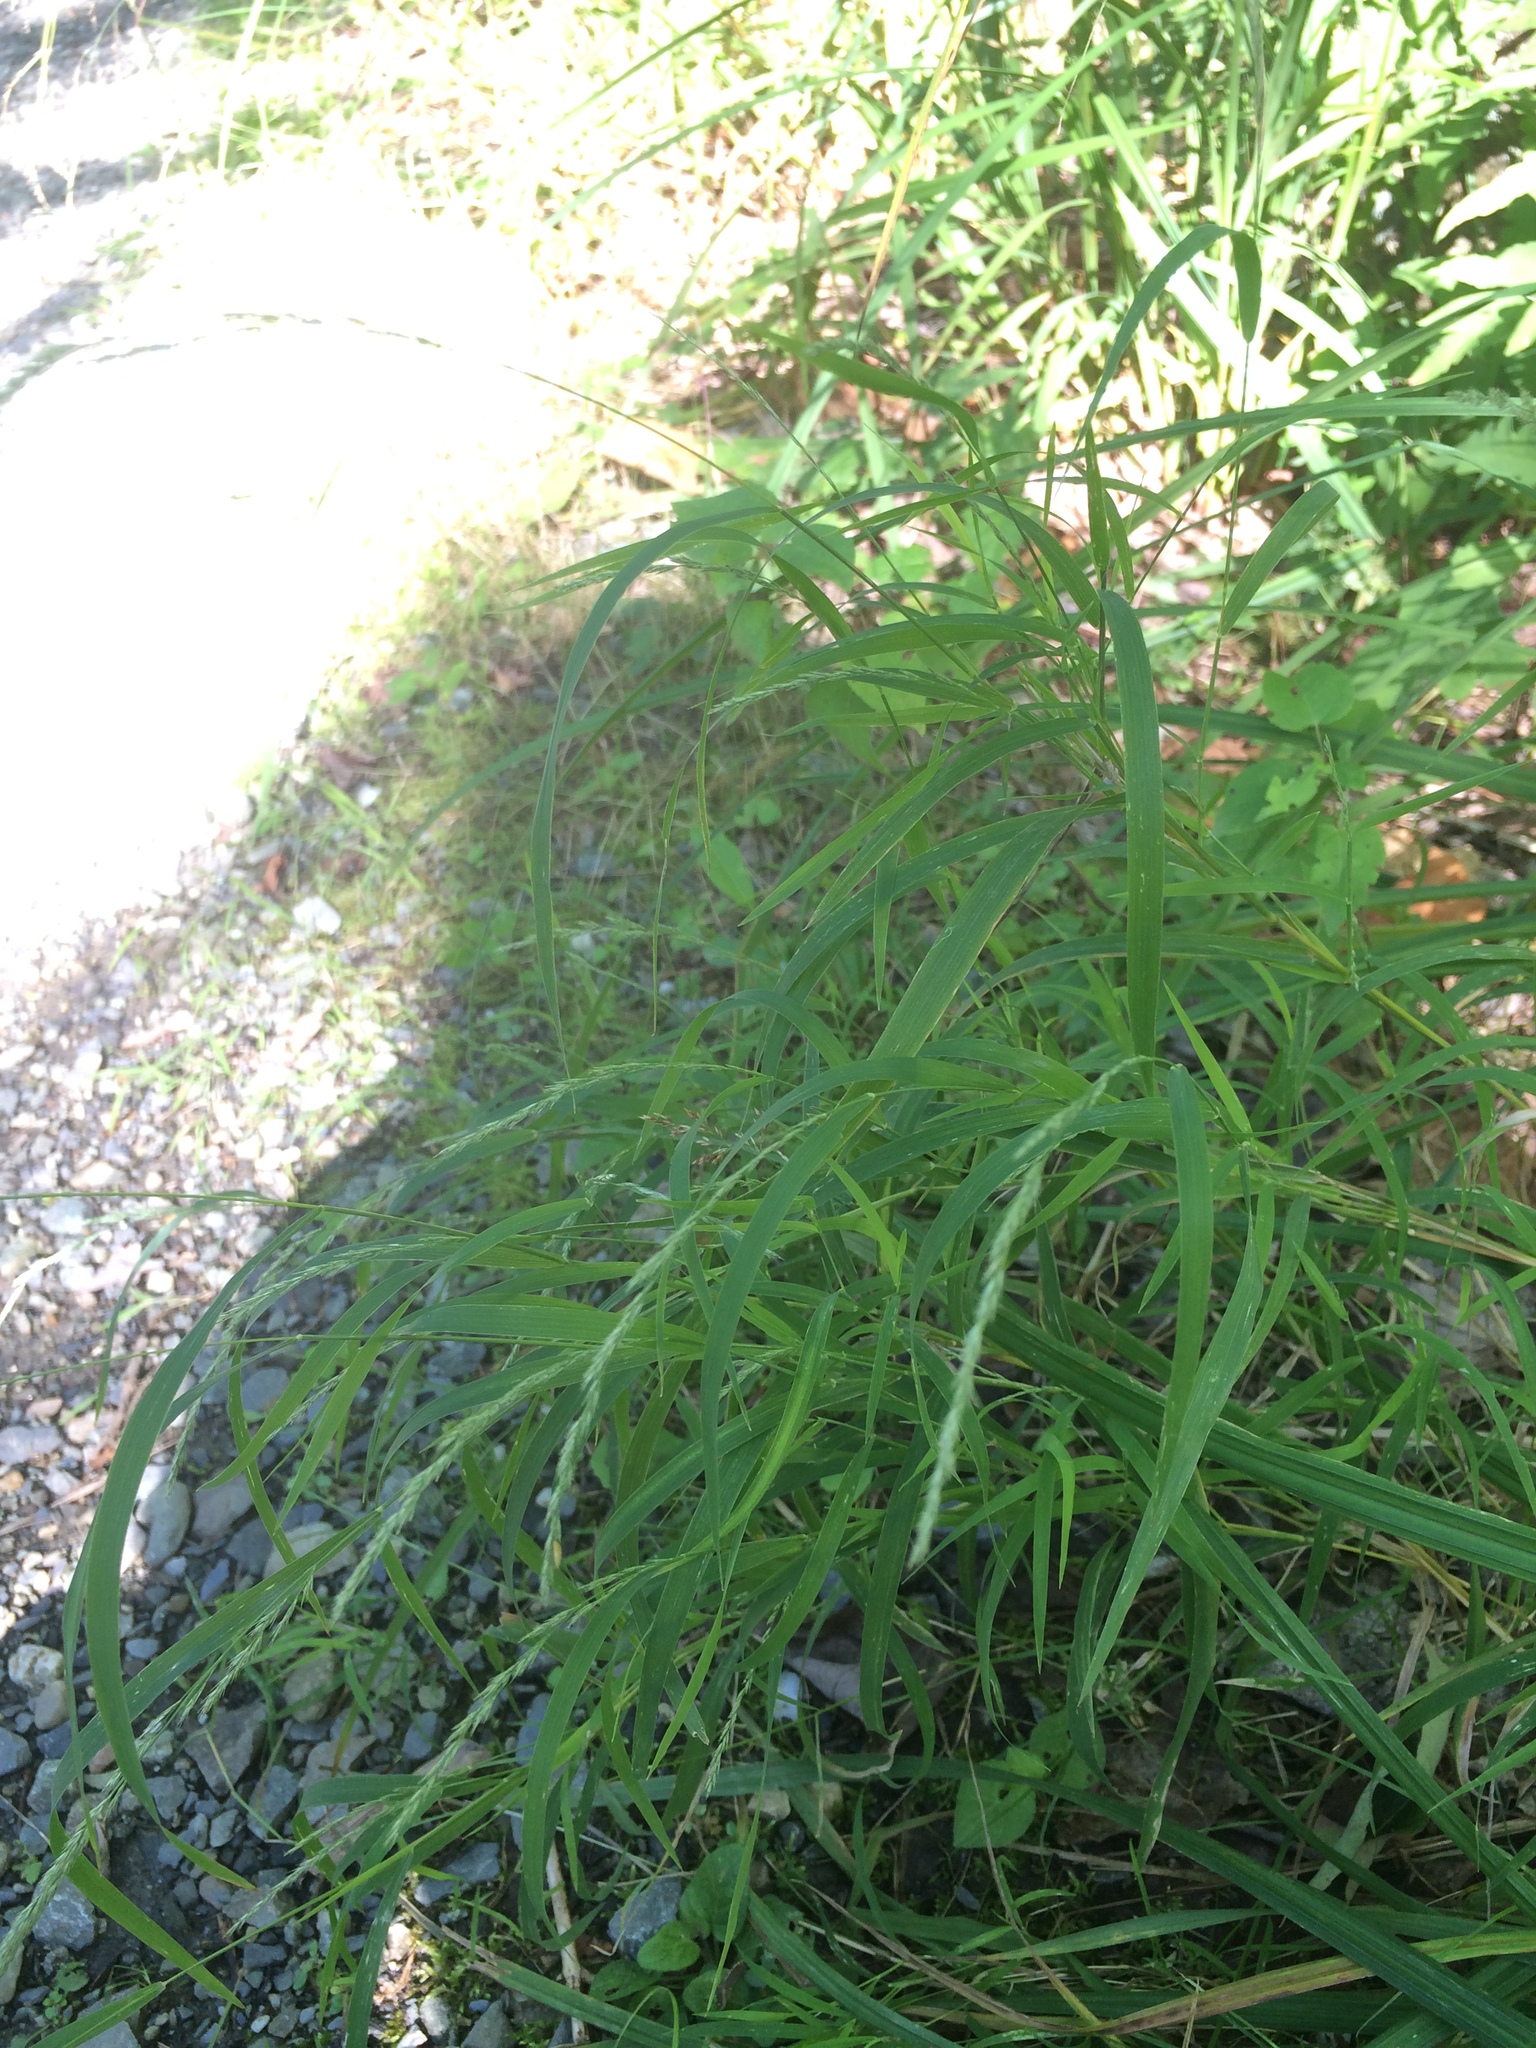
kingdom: Plantae
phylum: Tracheophyta
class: Liliopsida
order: Poales
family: Poaceae
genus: Muhlenbergia
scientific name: Muhlenbergia mexicana
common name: Mexican muhly
